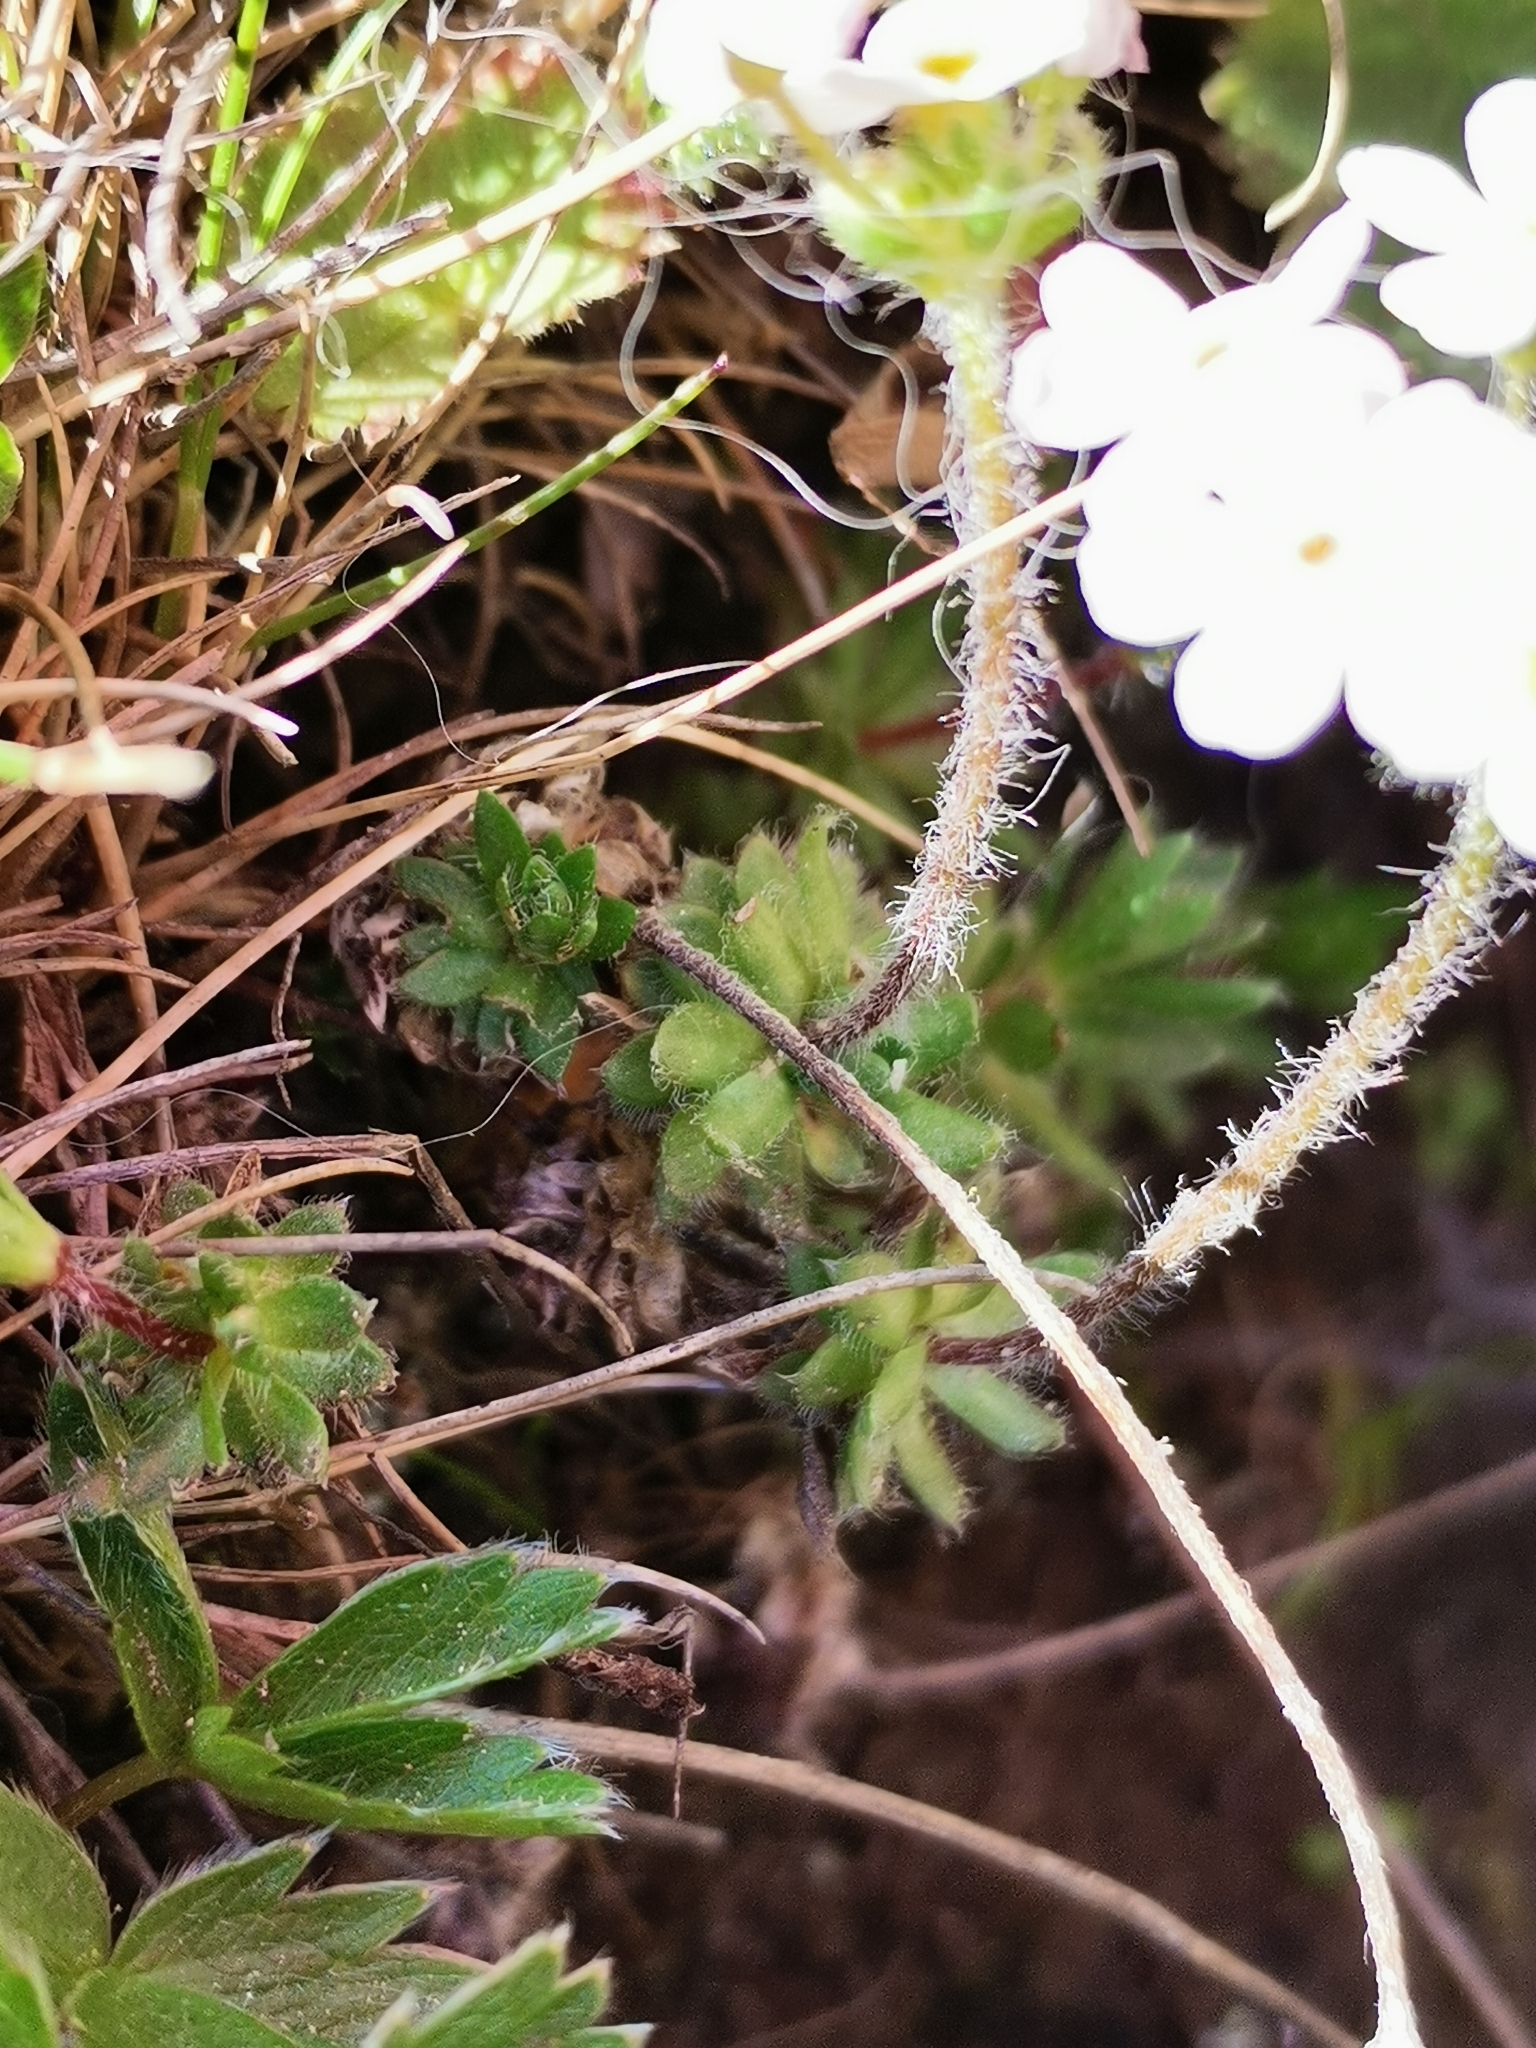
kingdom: Plantae
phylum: Tracheophyta
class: Magnoliopsida
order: Ericales
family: Primulaceae
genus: Androsace
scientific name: Androsace villosa
